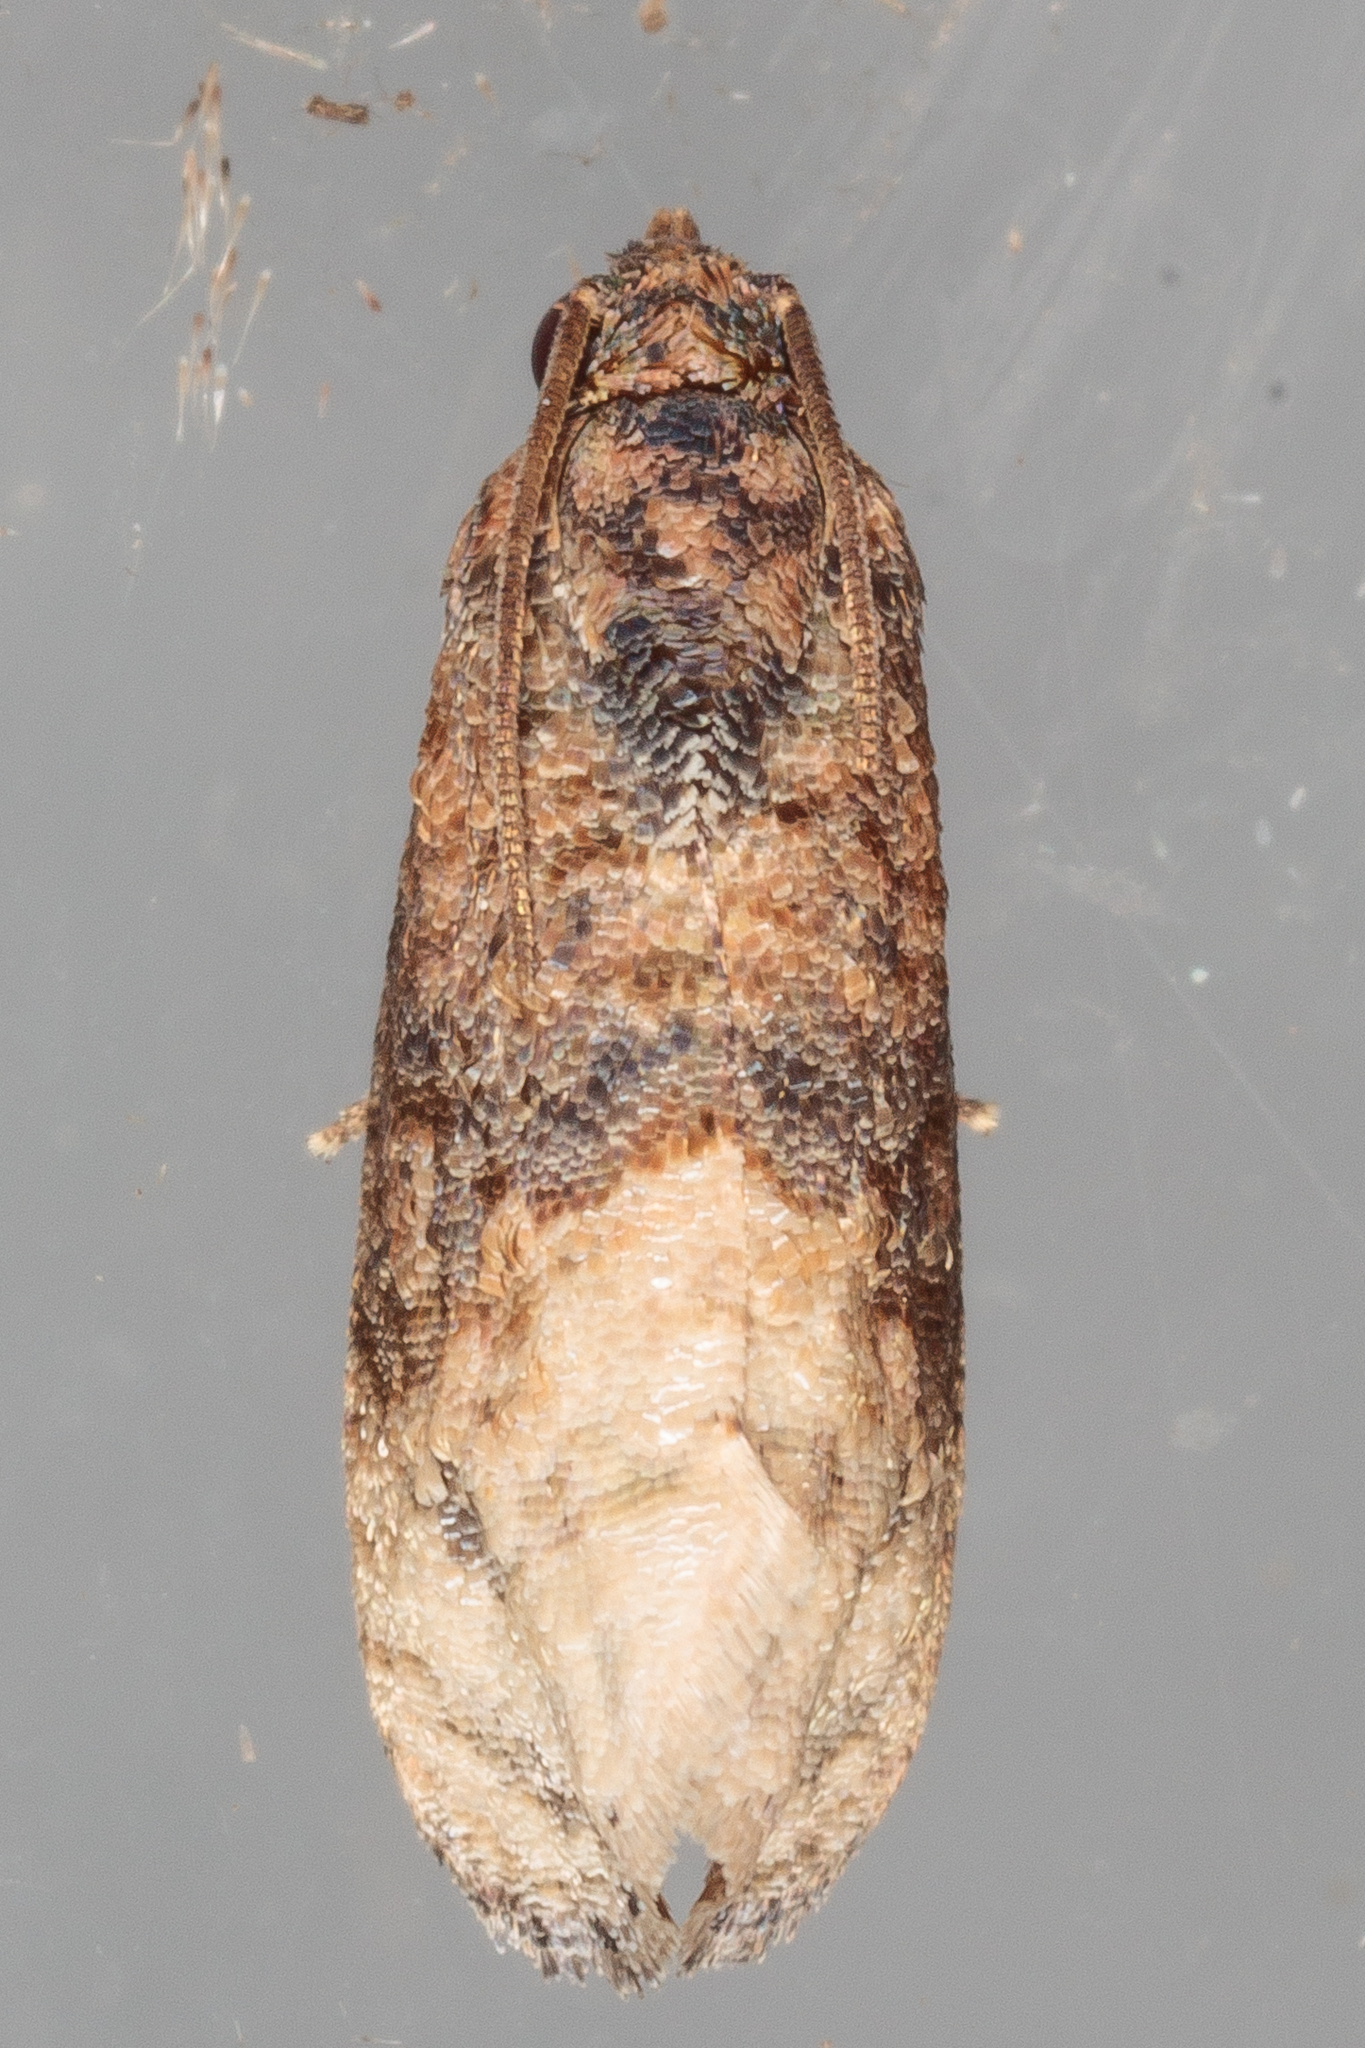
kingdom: Animalia
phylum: Arthropoda
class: Insecta
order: Lepidoptera
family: Tortricidae
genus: Ecdytolopha
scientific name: Ecdytolopha mana
